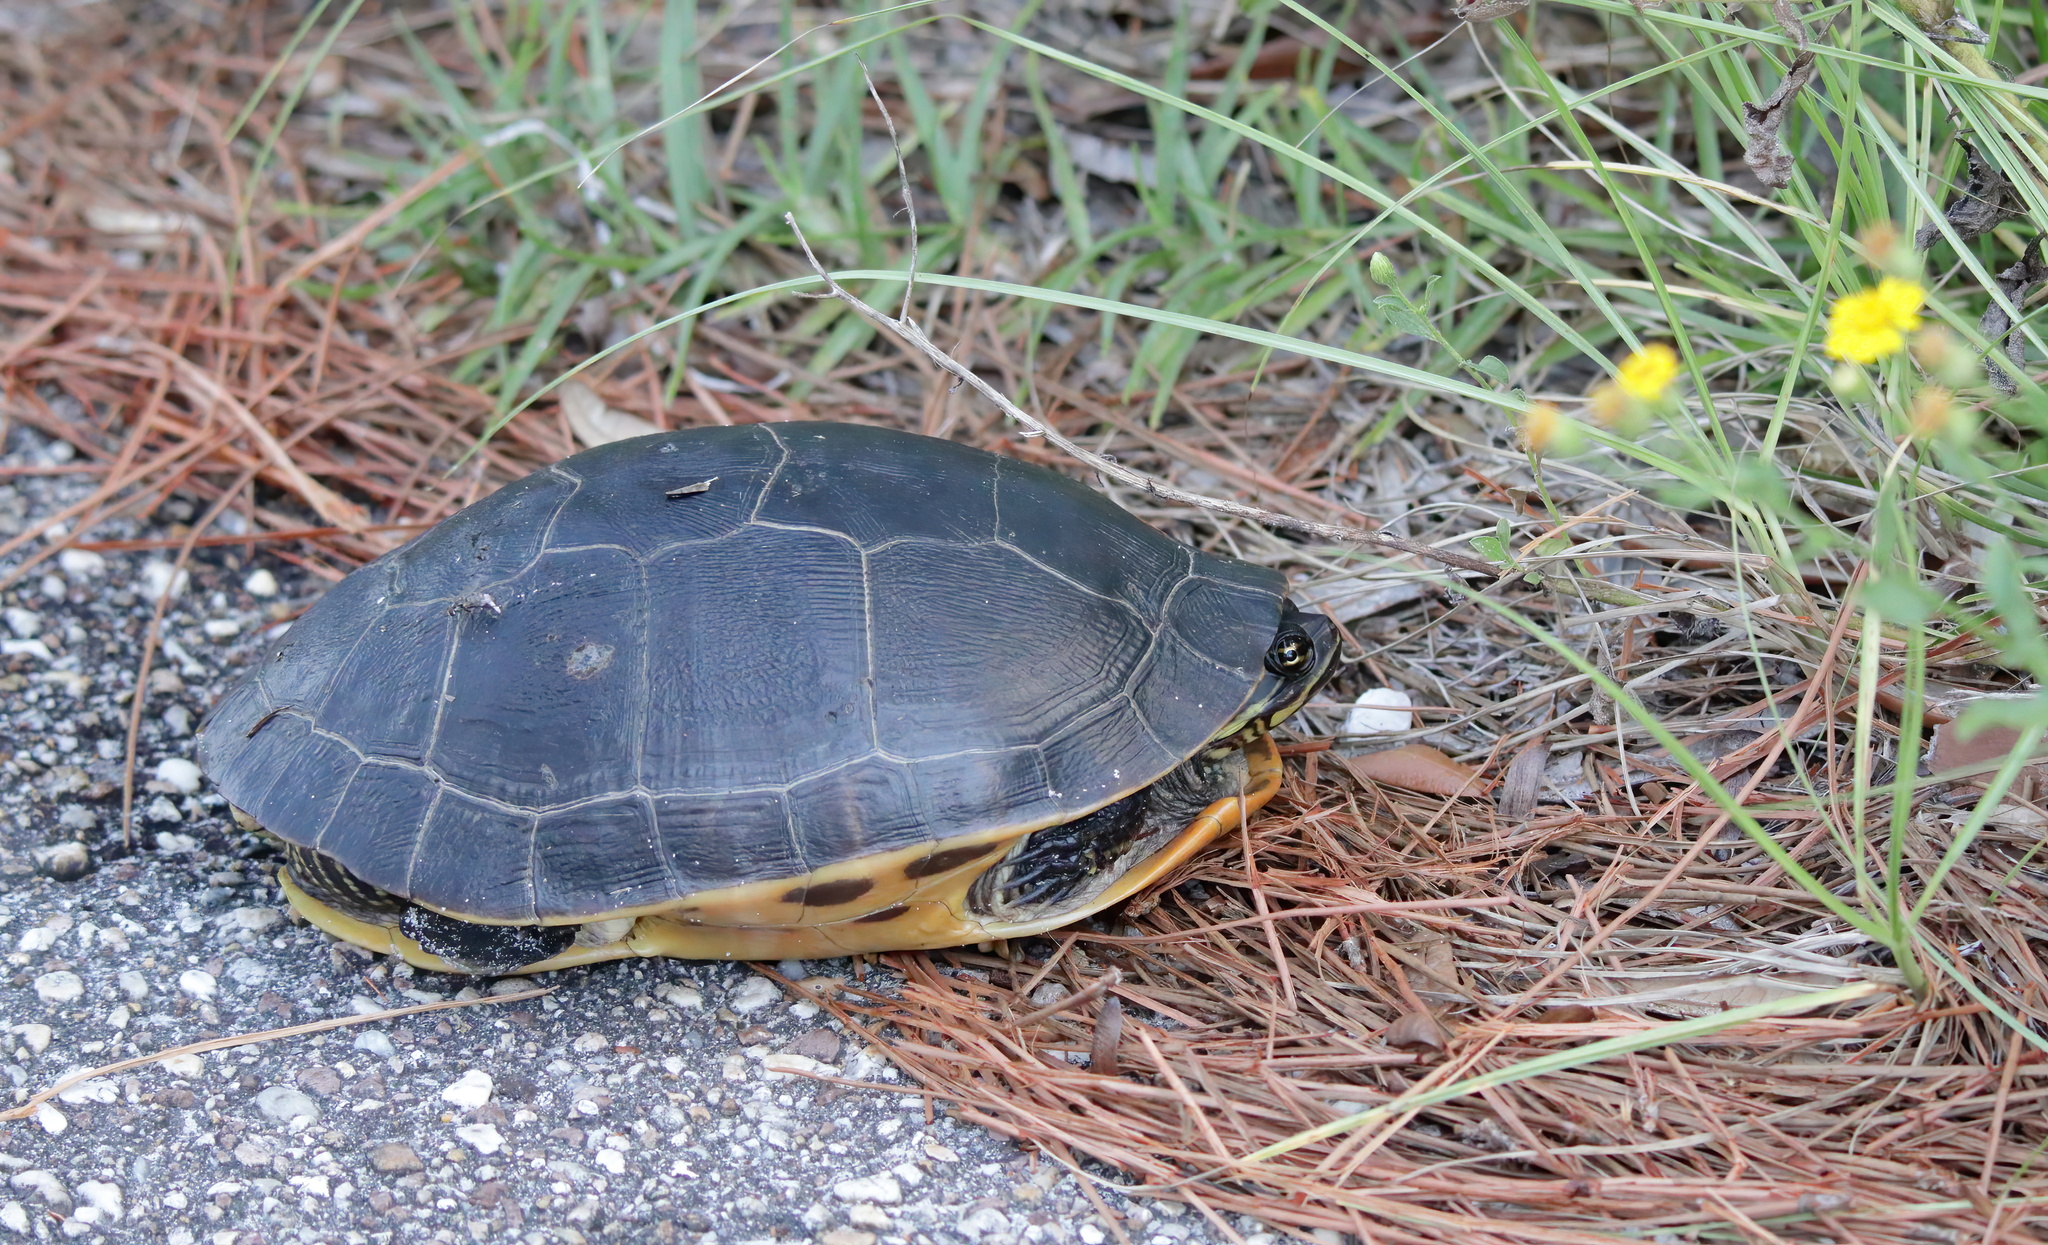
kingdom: Animalia
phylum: Chordata
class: Testudines
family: Emydidae
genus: Deirochelys
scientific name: Deirochelys reticularia
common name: Chicken turtle
